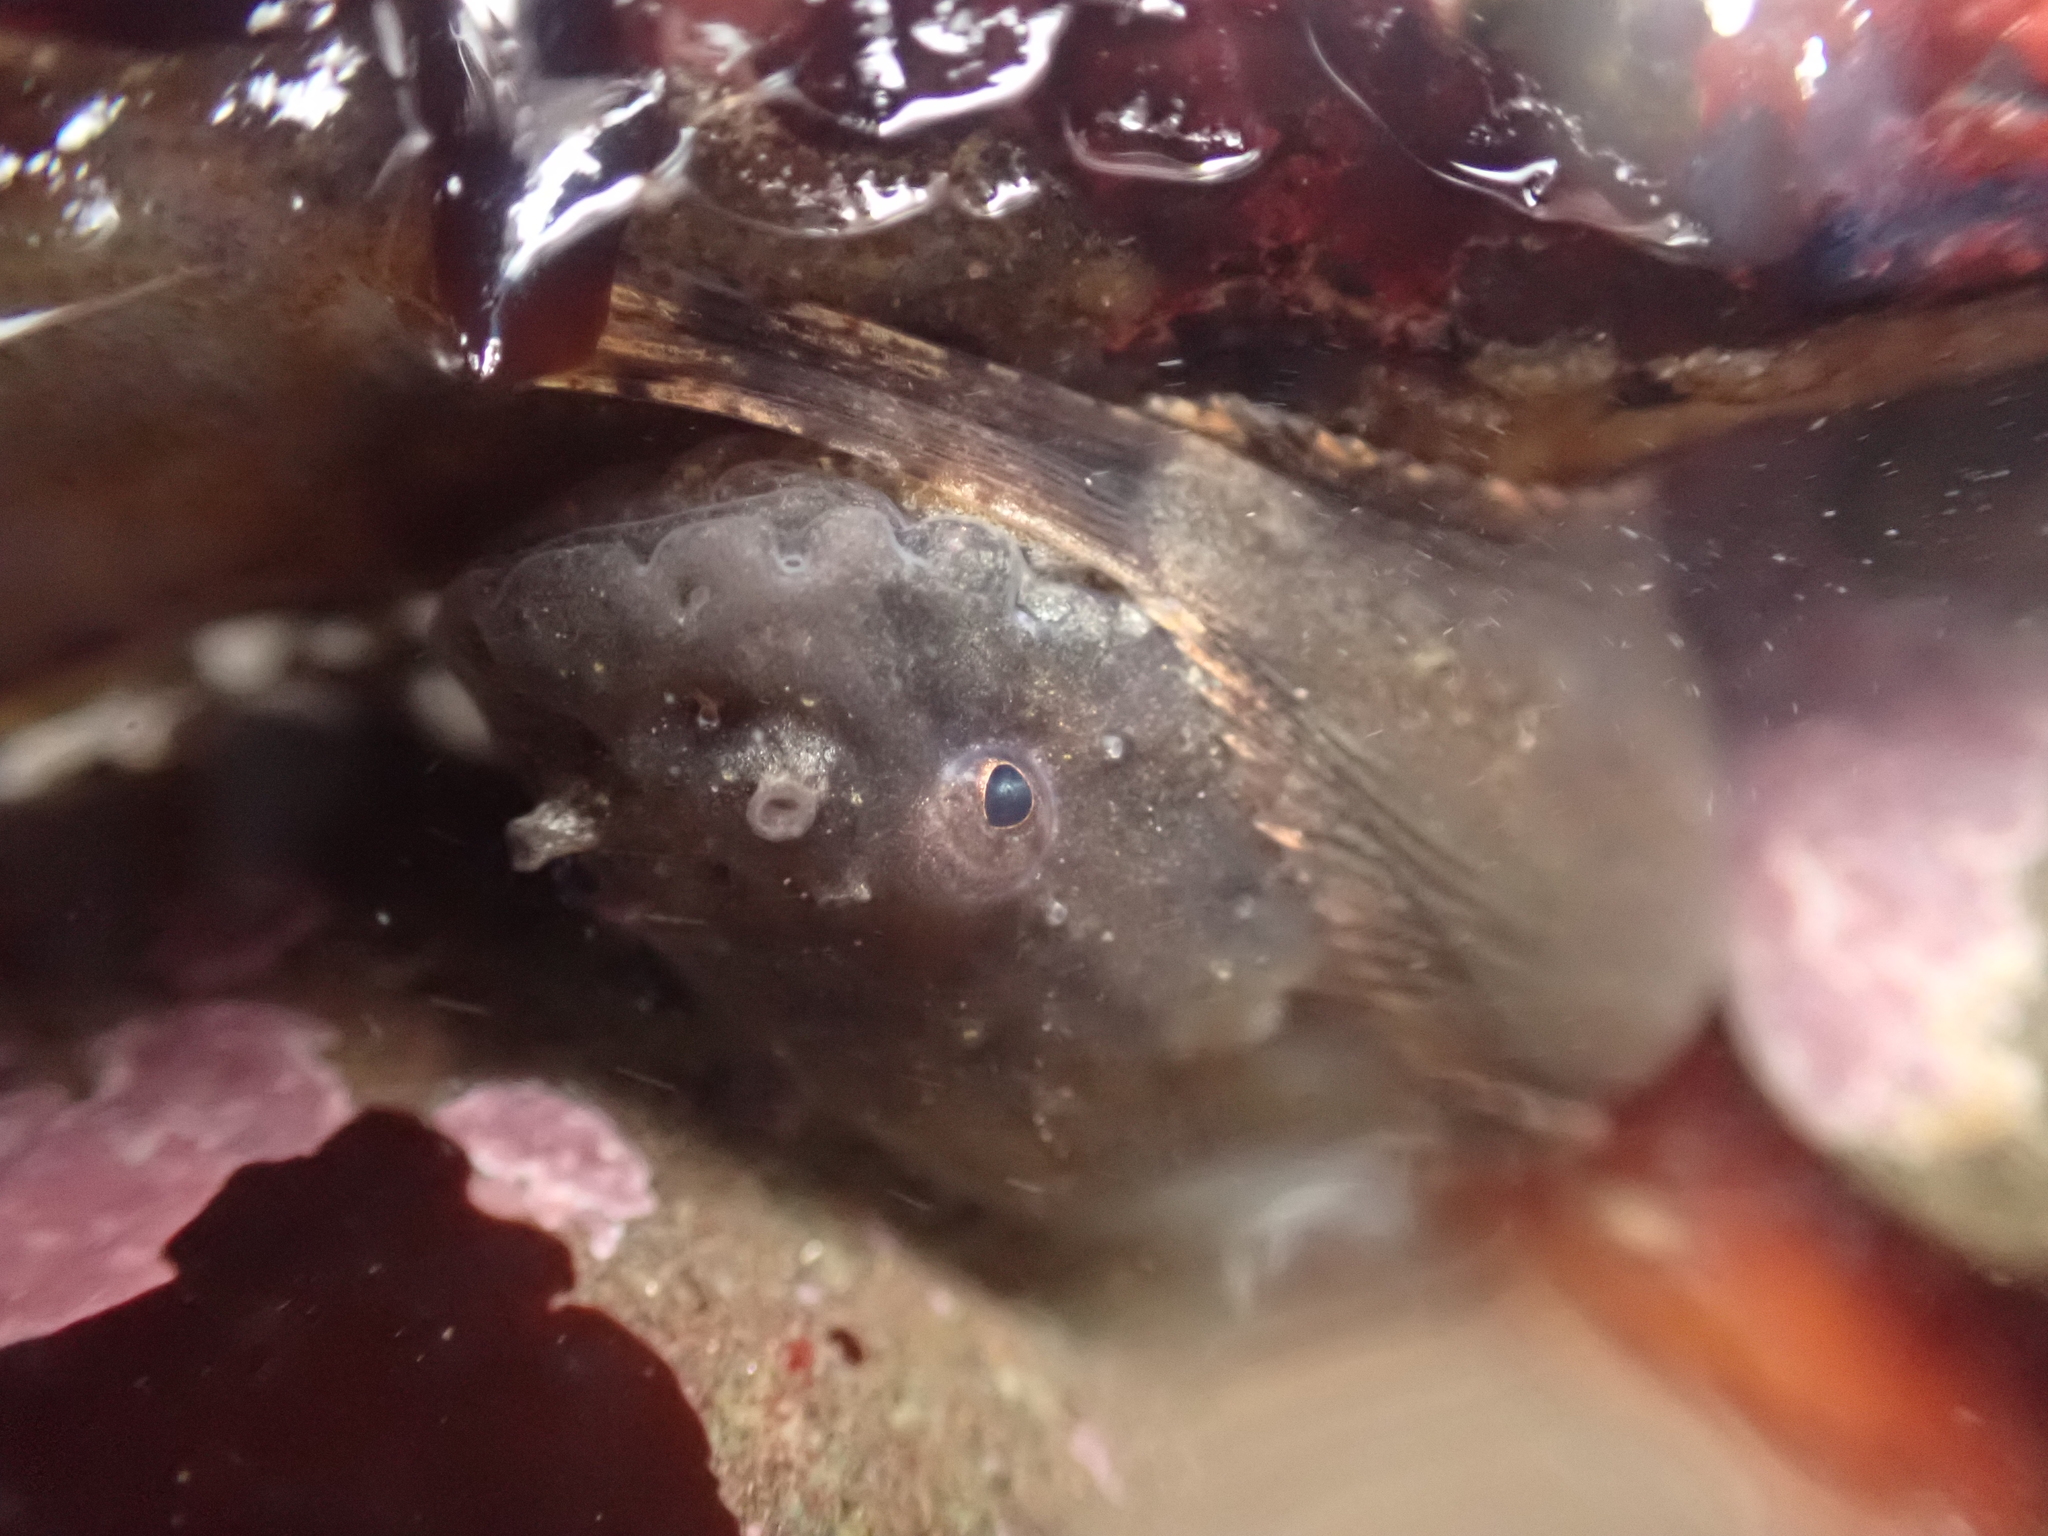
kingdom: Animalia
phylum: Chordata
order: Scorpaeniformes
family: Liparidae
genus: Liparis
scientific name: Liparis atlanticus
